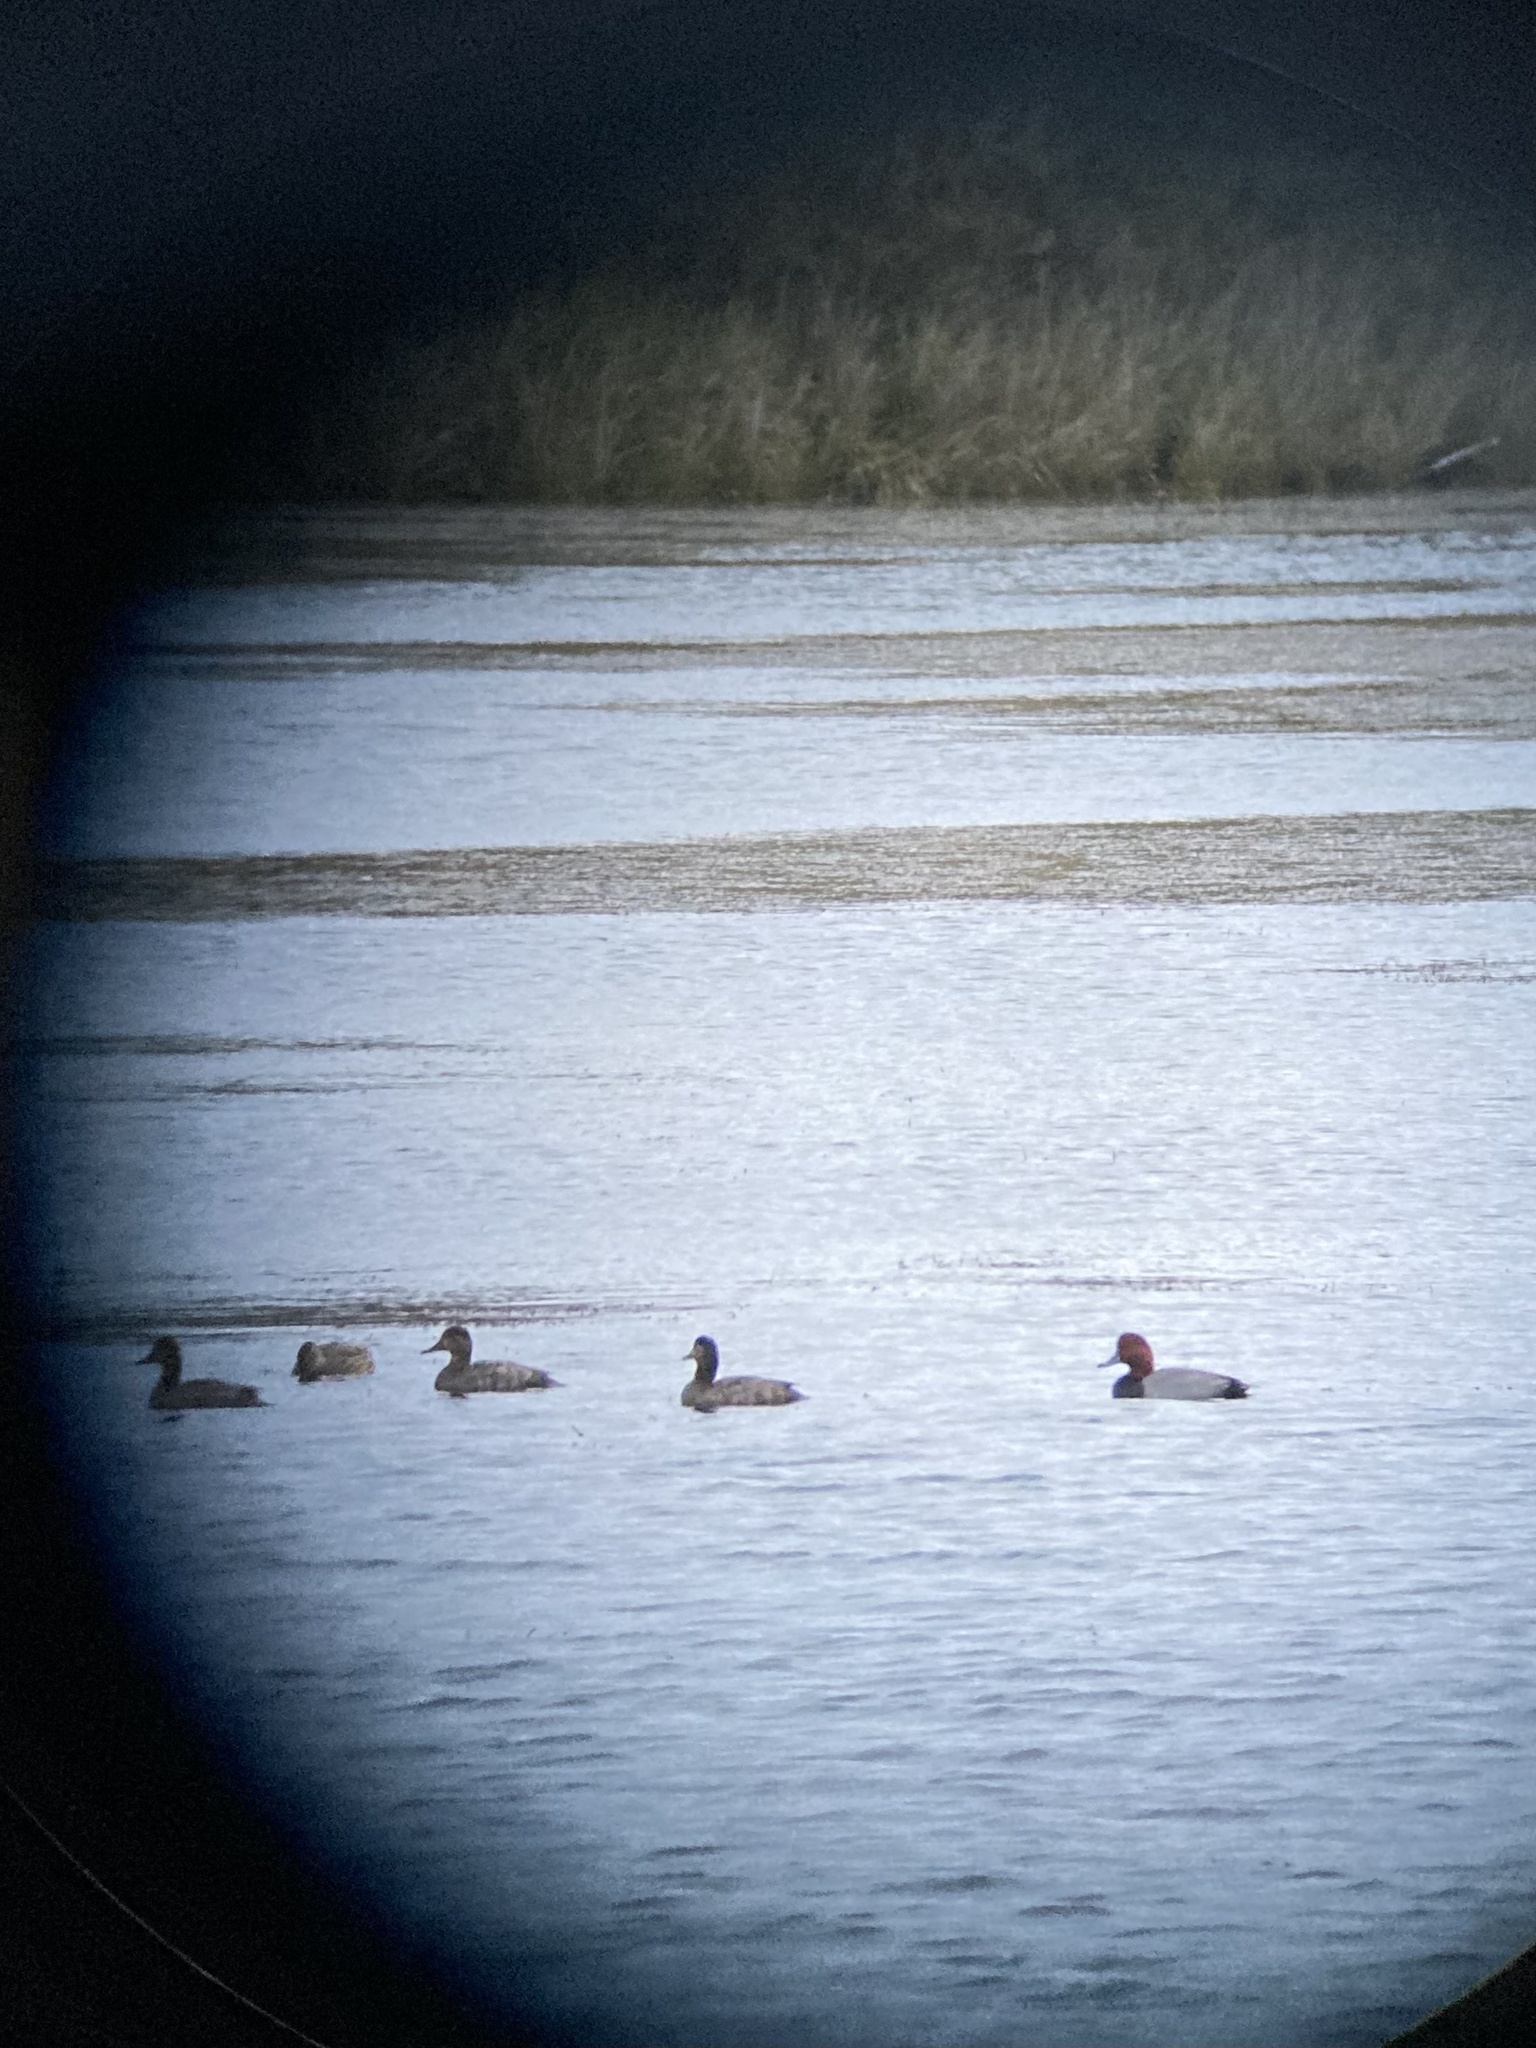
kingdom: Animalia
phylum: Chordata
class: Aves
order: Anseriformes
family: Anatidae
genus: Aythya
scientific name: Aythya americana
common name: Redhead
